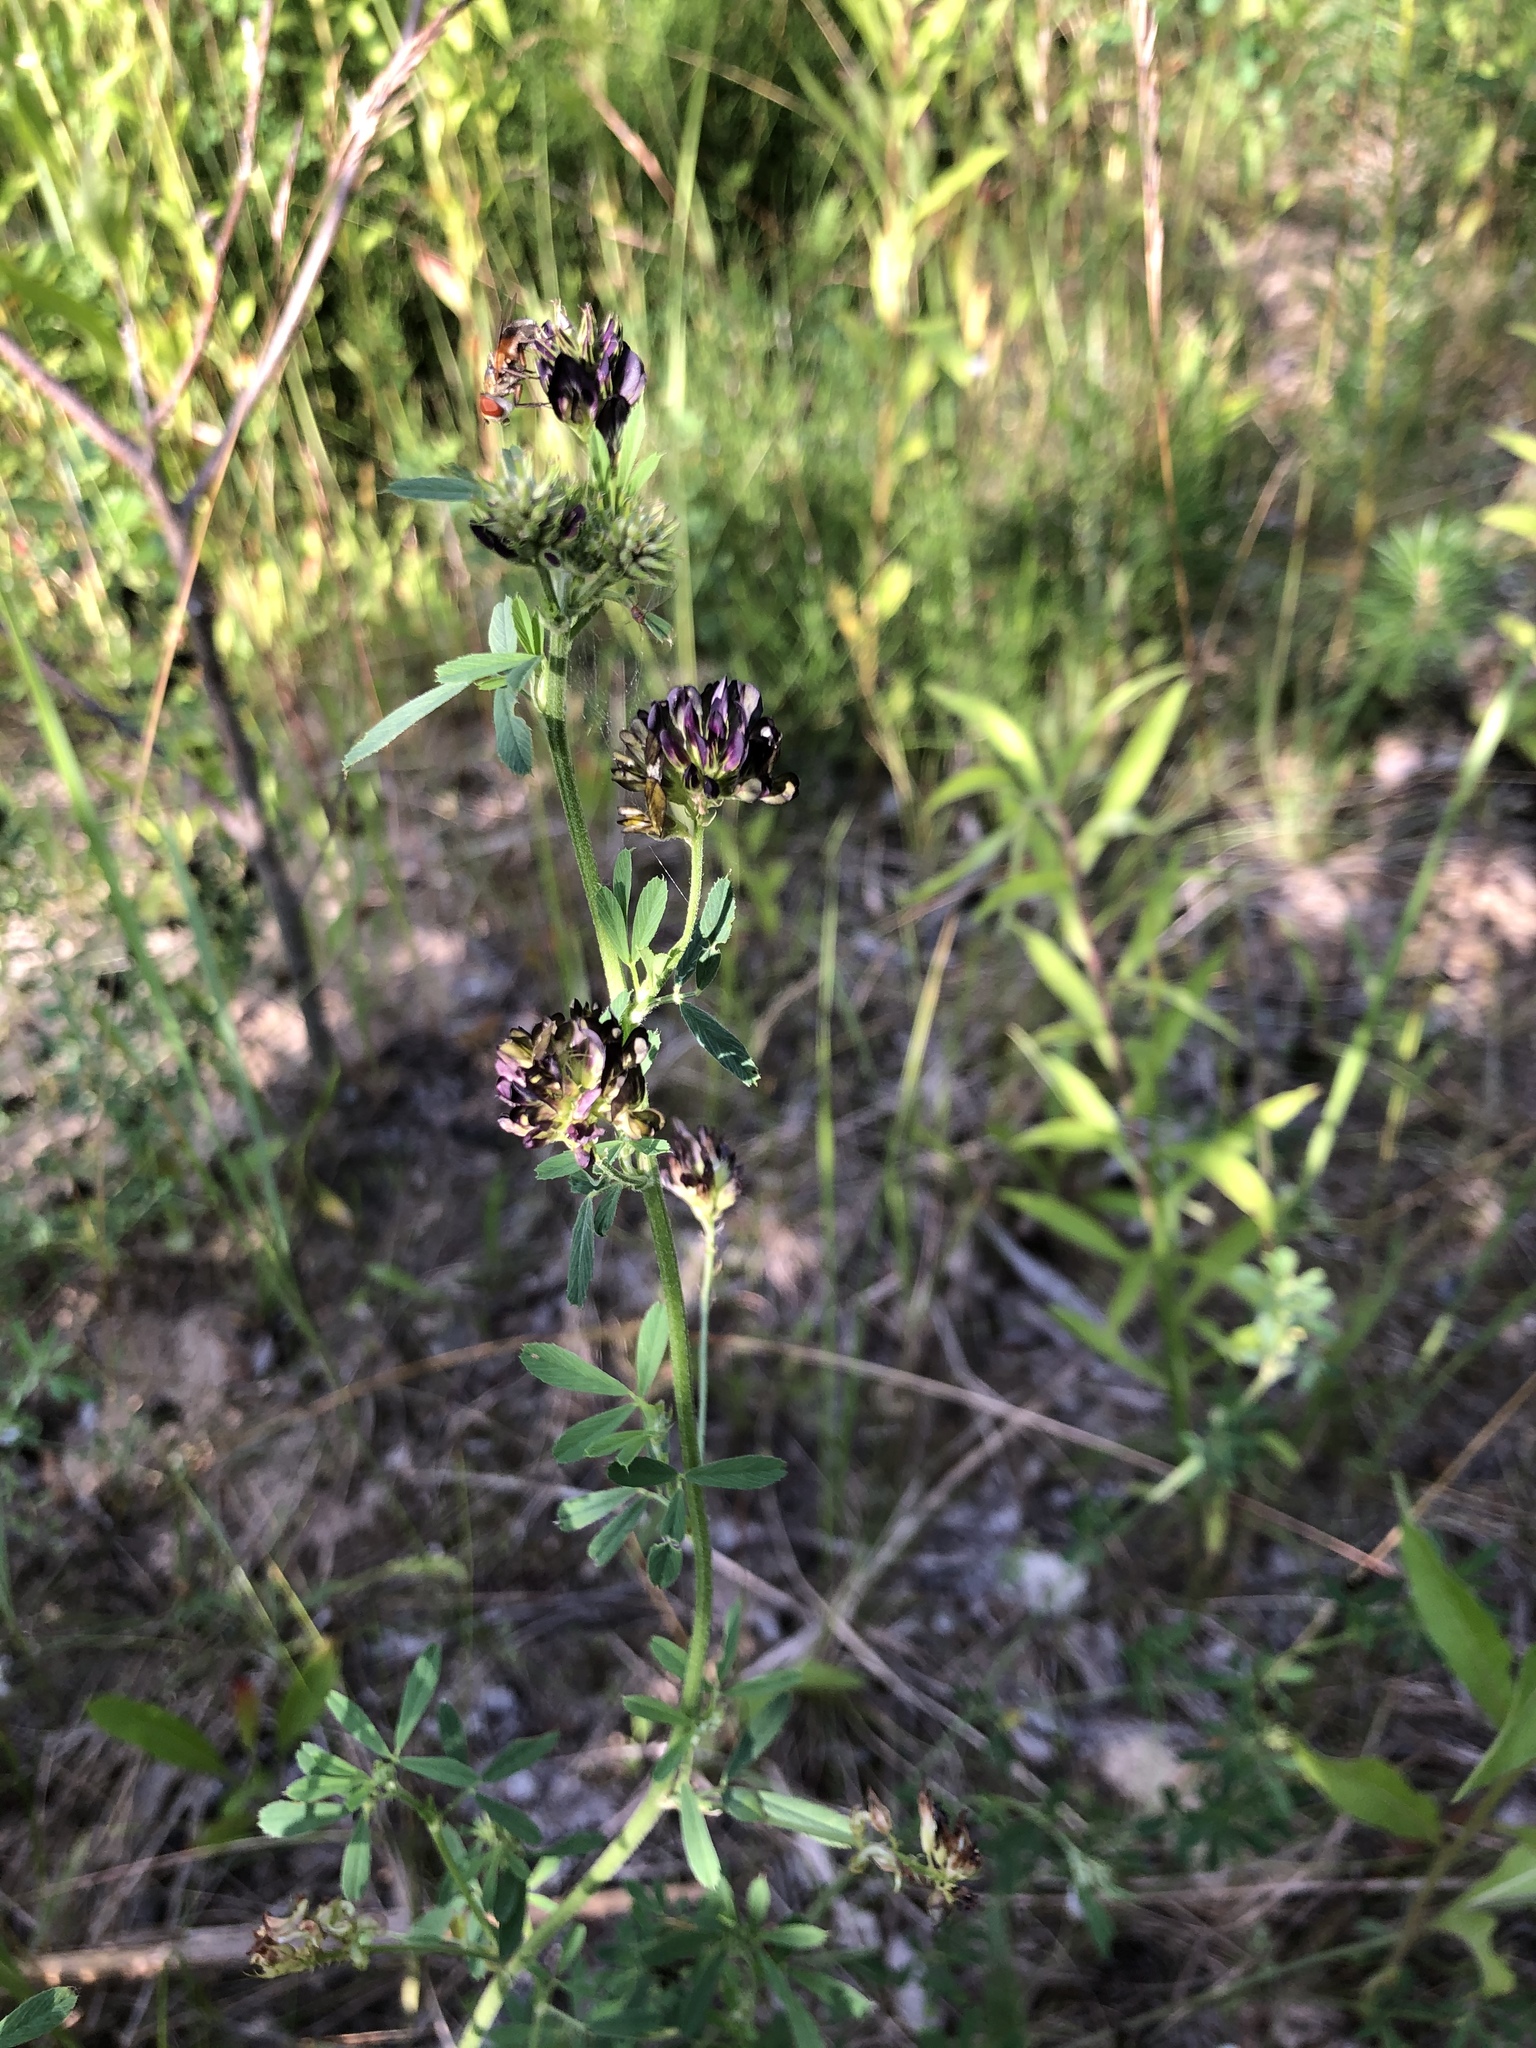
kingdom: Plantae
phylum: Tracheophyta
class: Magnoliopsida
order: Fabales
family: Fabaceae
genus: Medicago
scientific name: Medicago varia
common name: Sand lucerne
